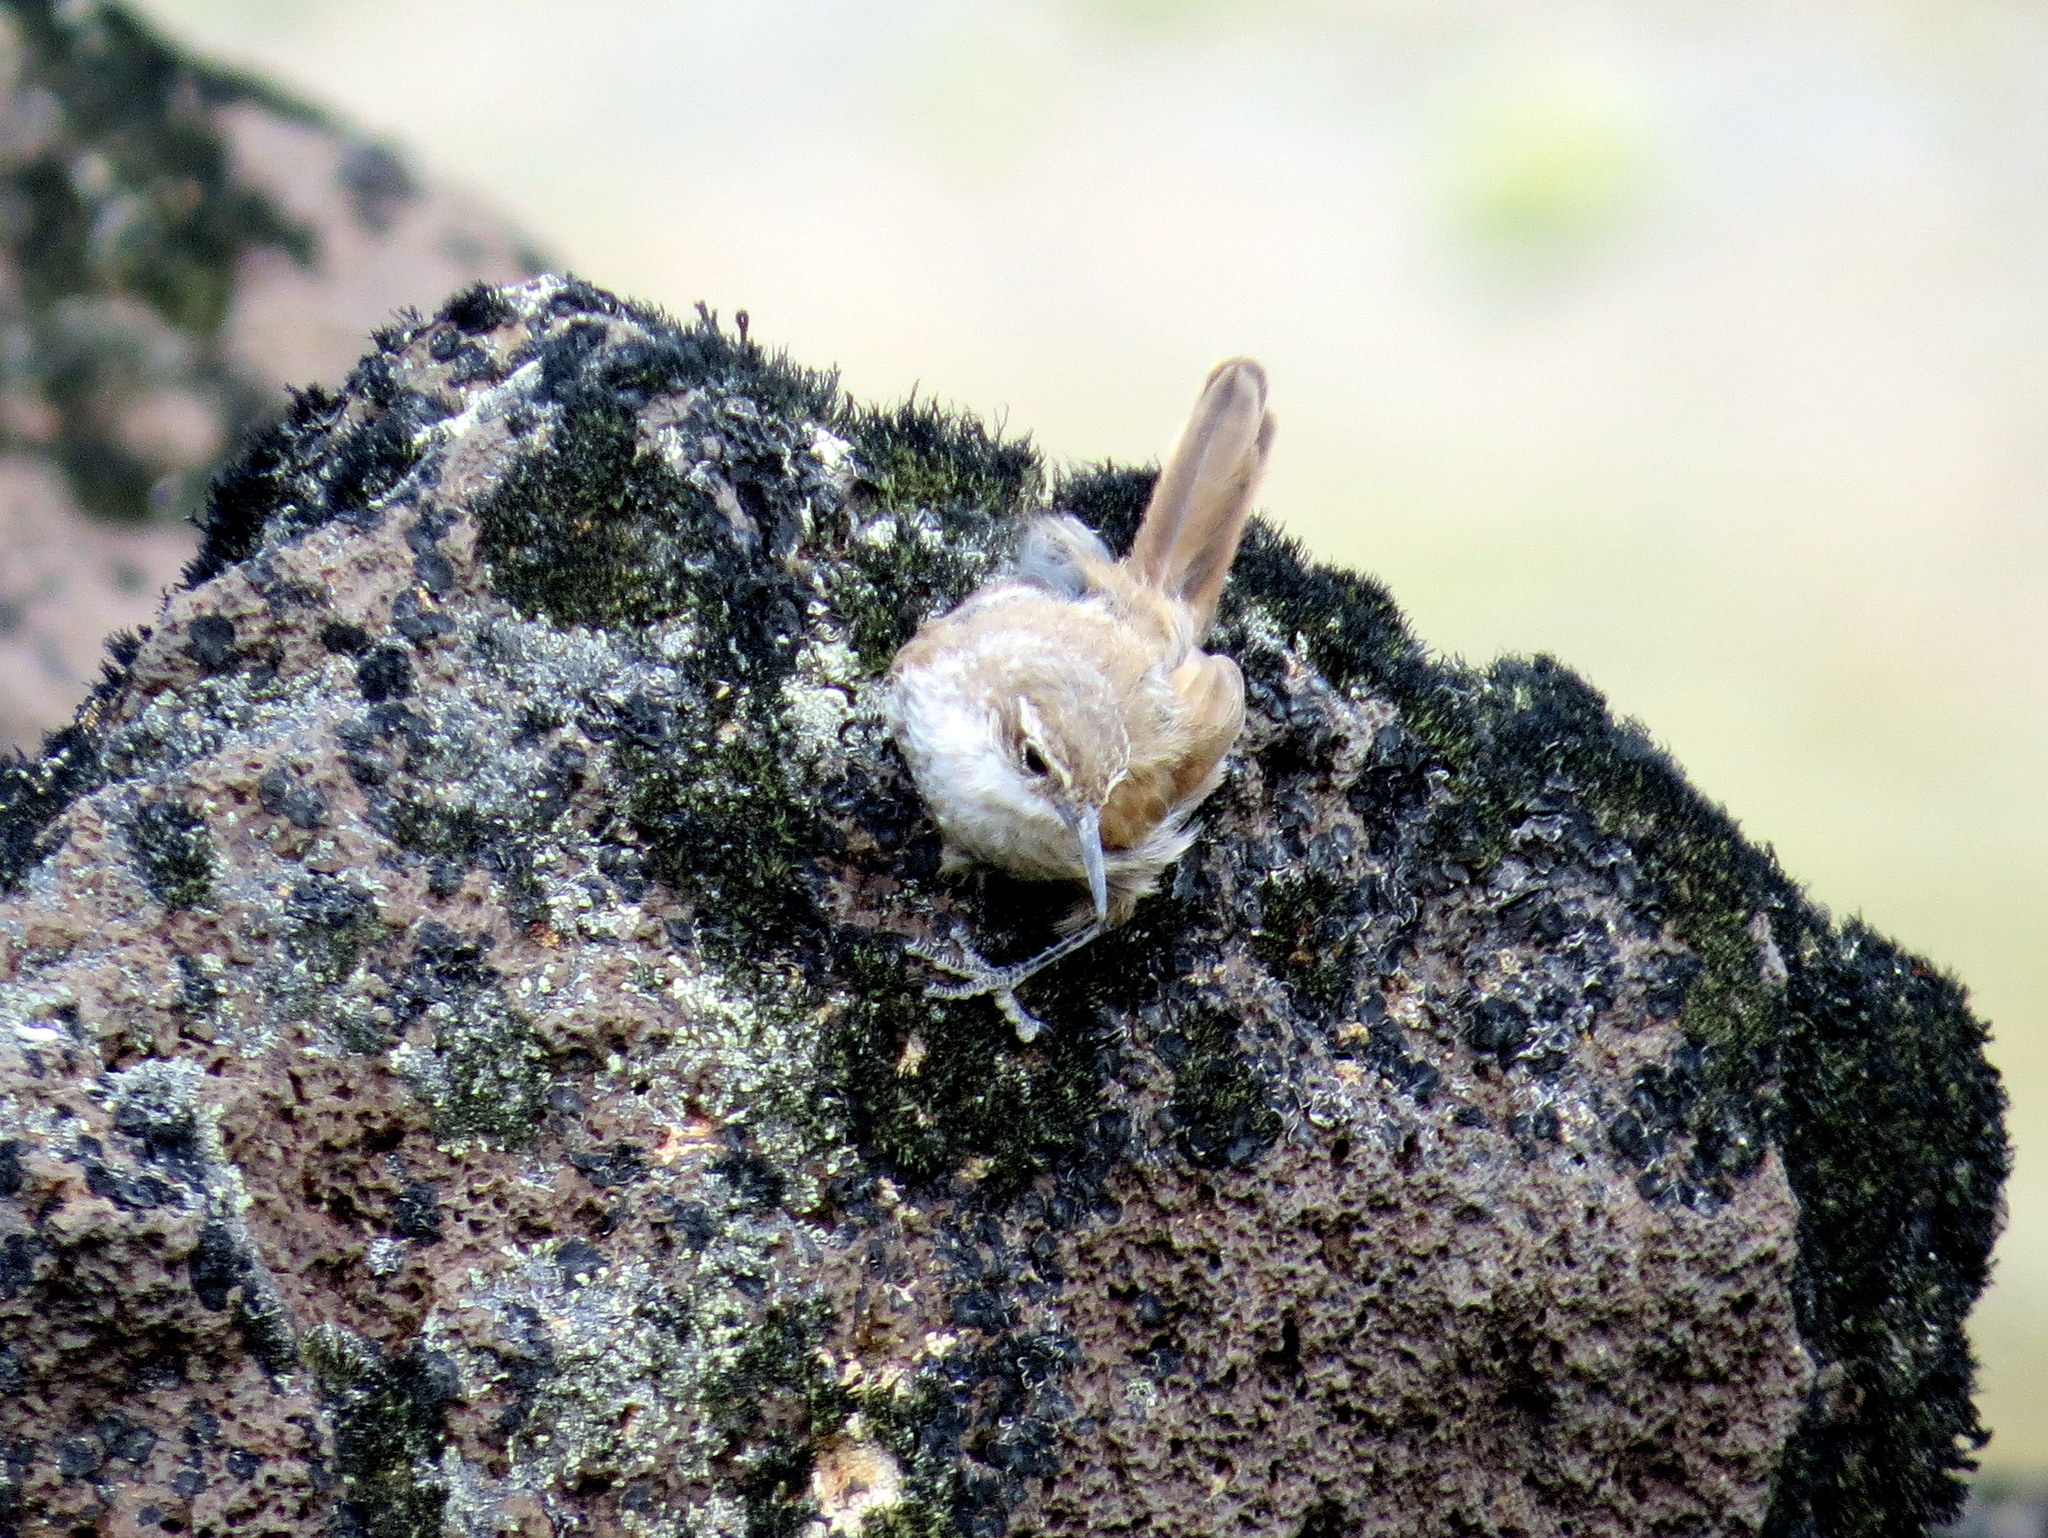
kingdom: Animalia
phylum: Chordata
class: Aves
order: Passeriformes
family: Furnariidae
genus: Upucerthia
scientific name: Upucerthia ruficaudus
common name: Straight-billed earthcreeper
